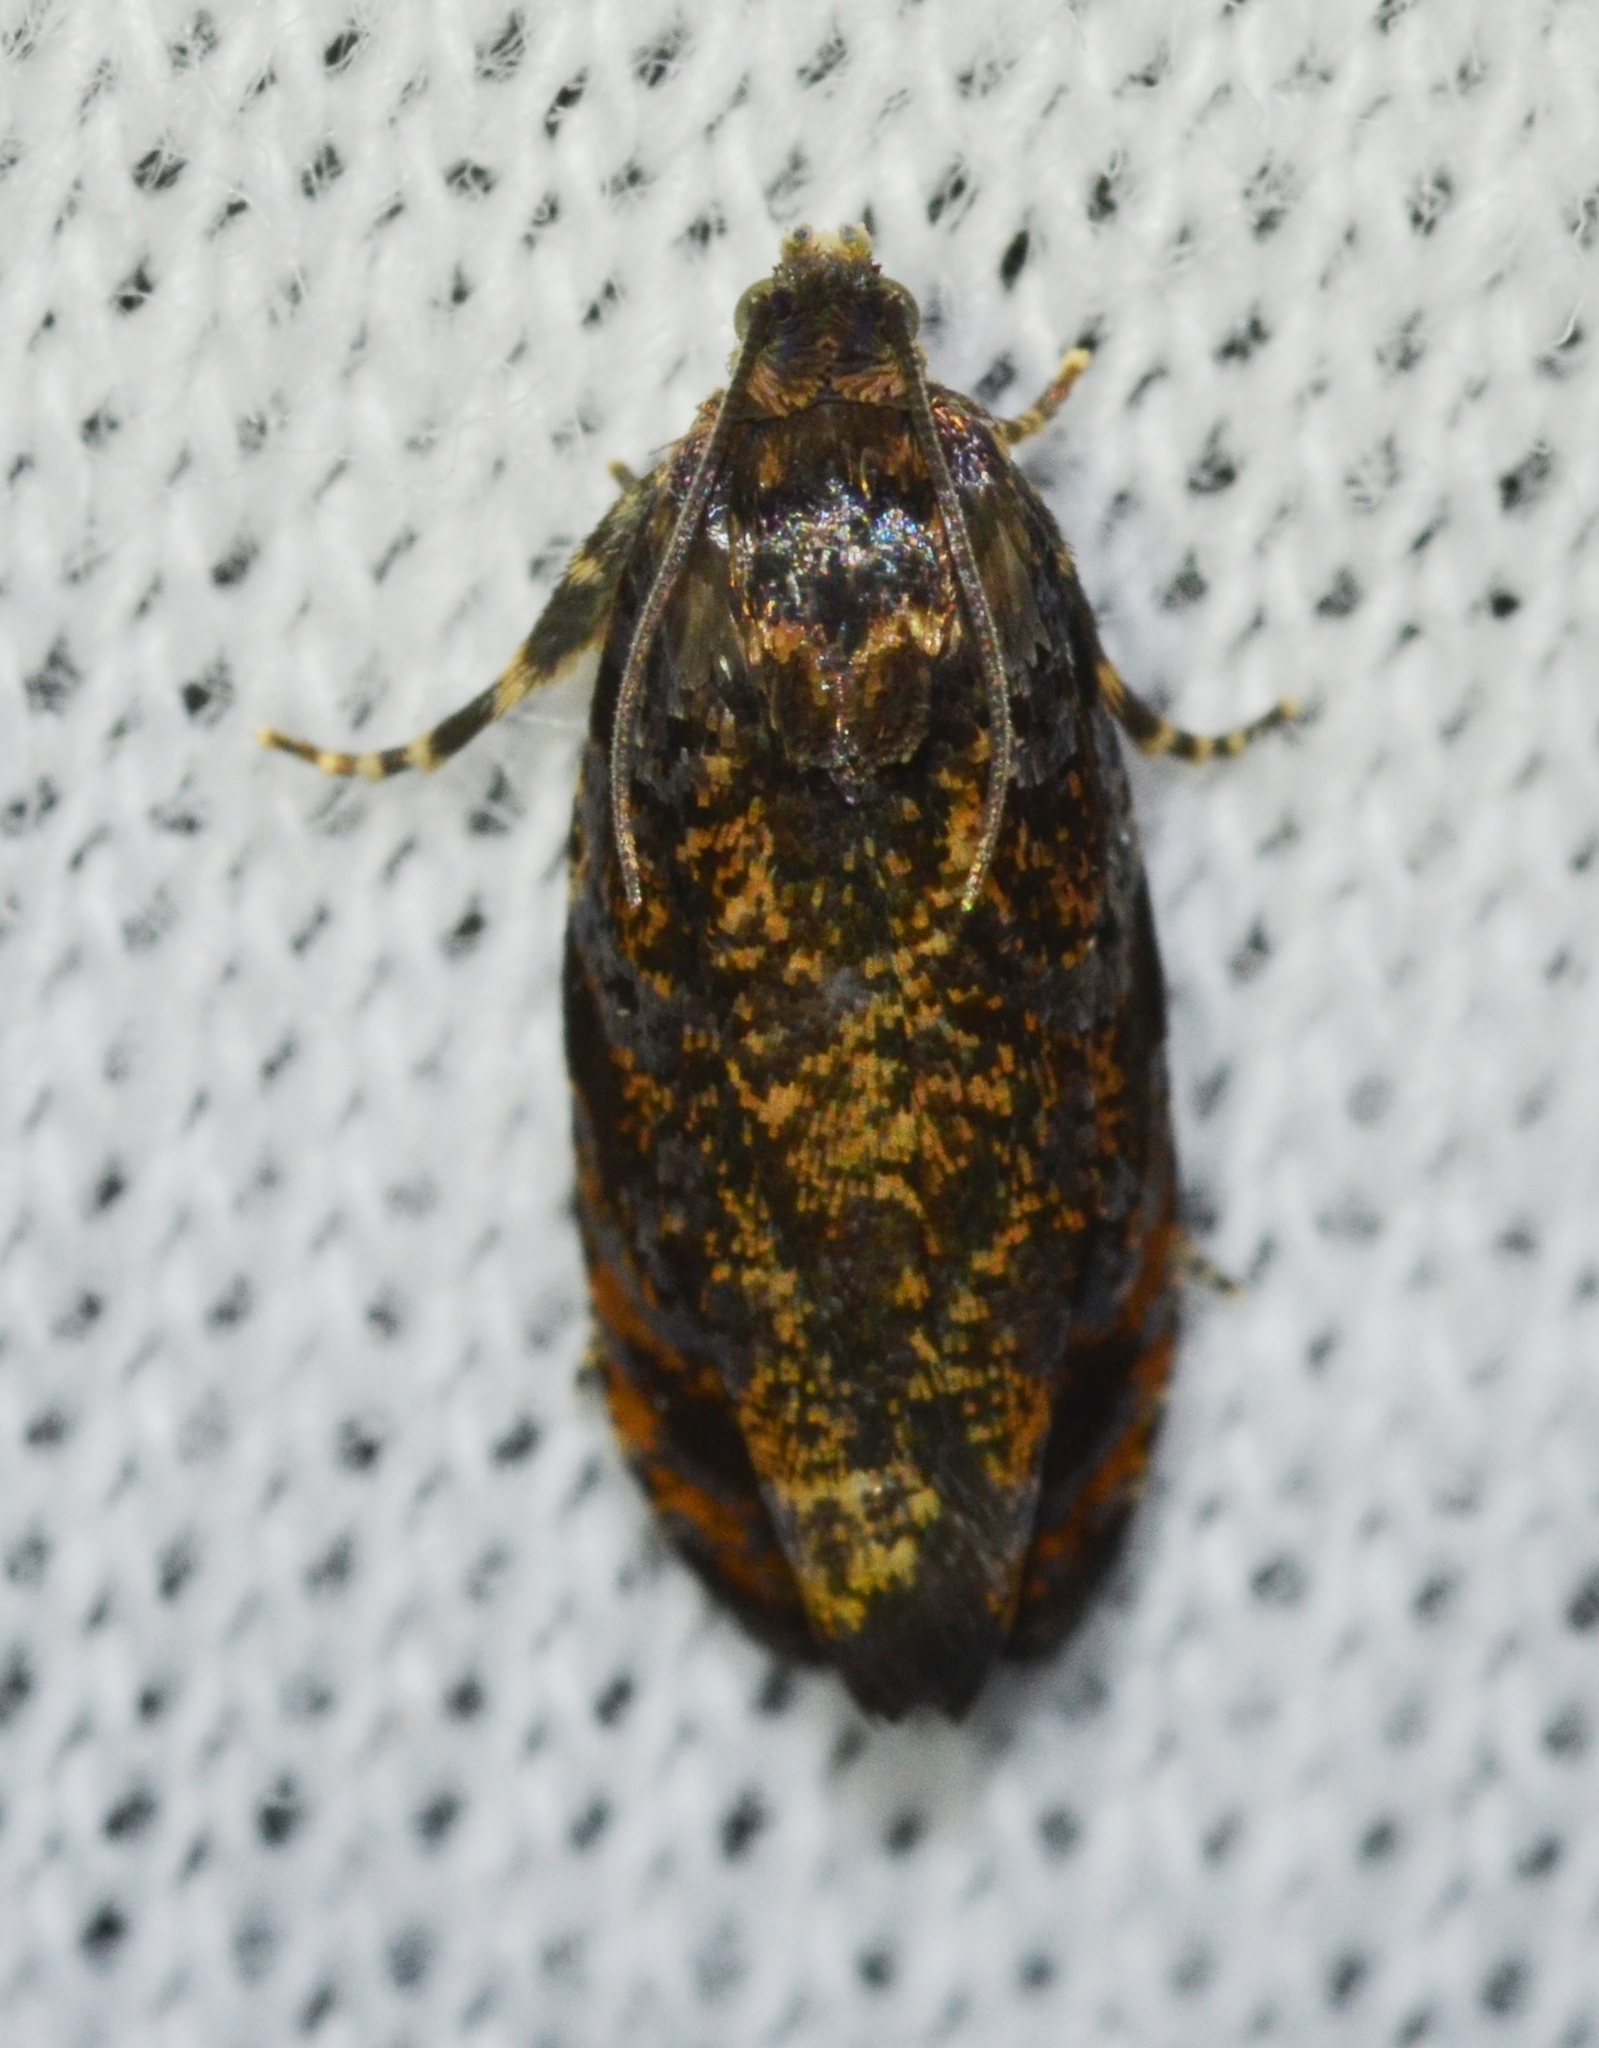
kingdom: Animalia
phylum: Arthropoda
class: Insecta
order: Lepidoptera
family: Tortricidae
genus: Pristerognatha
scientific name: Pristerognatha agilana
